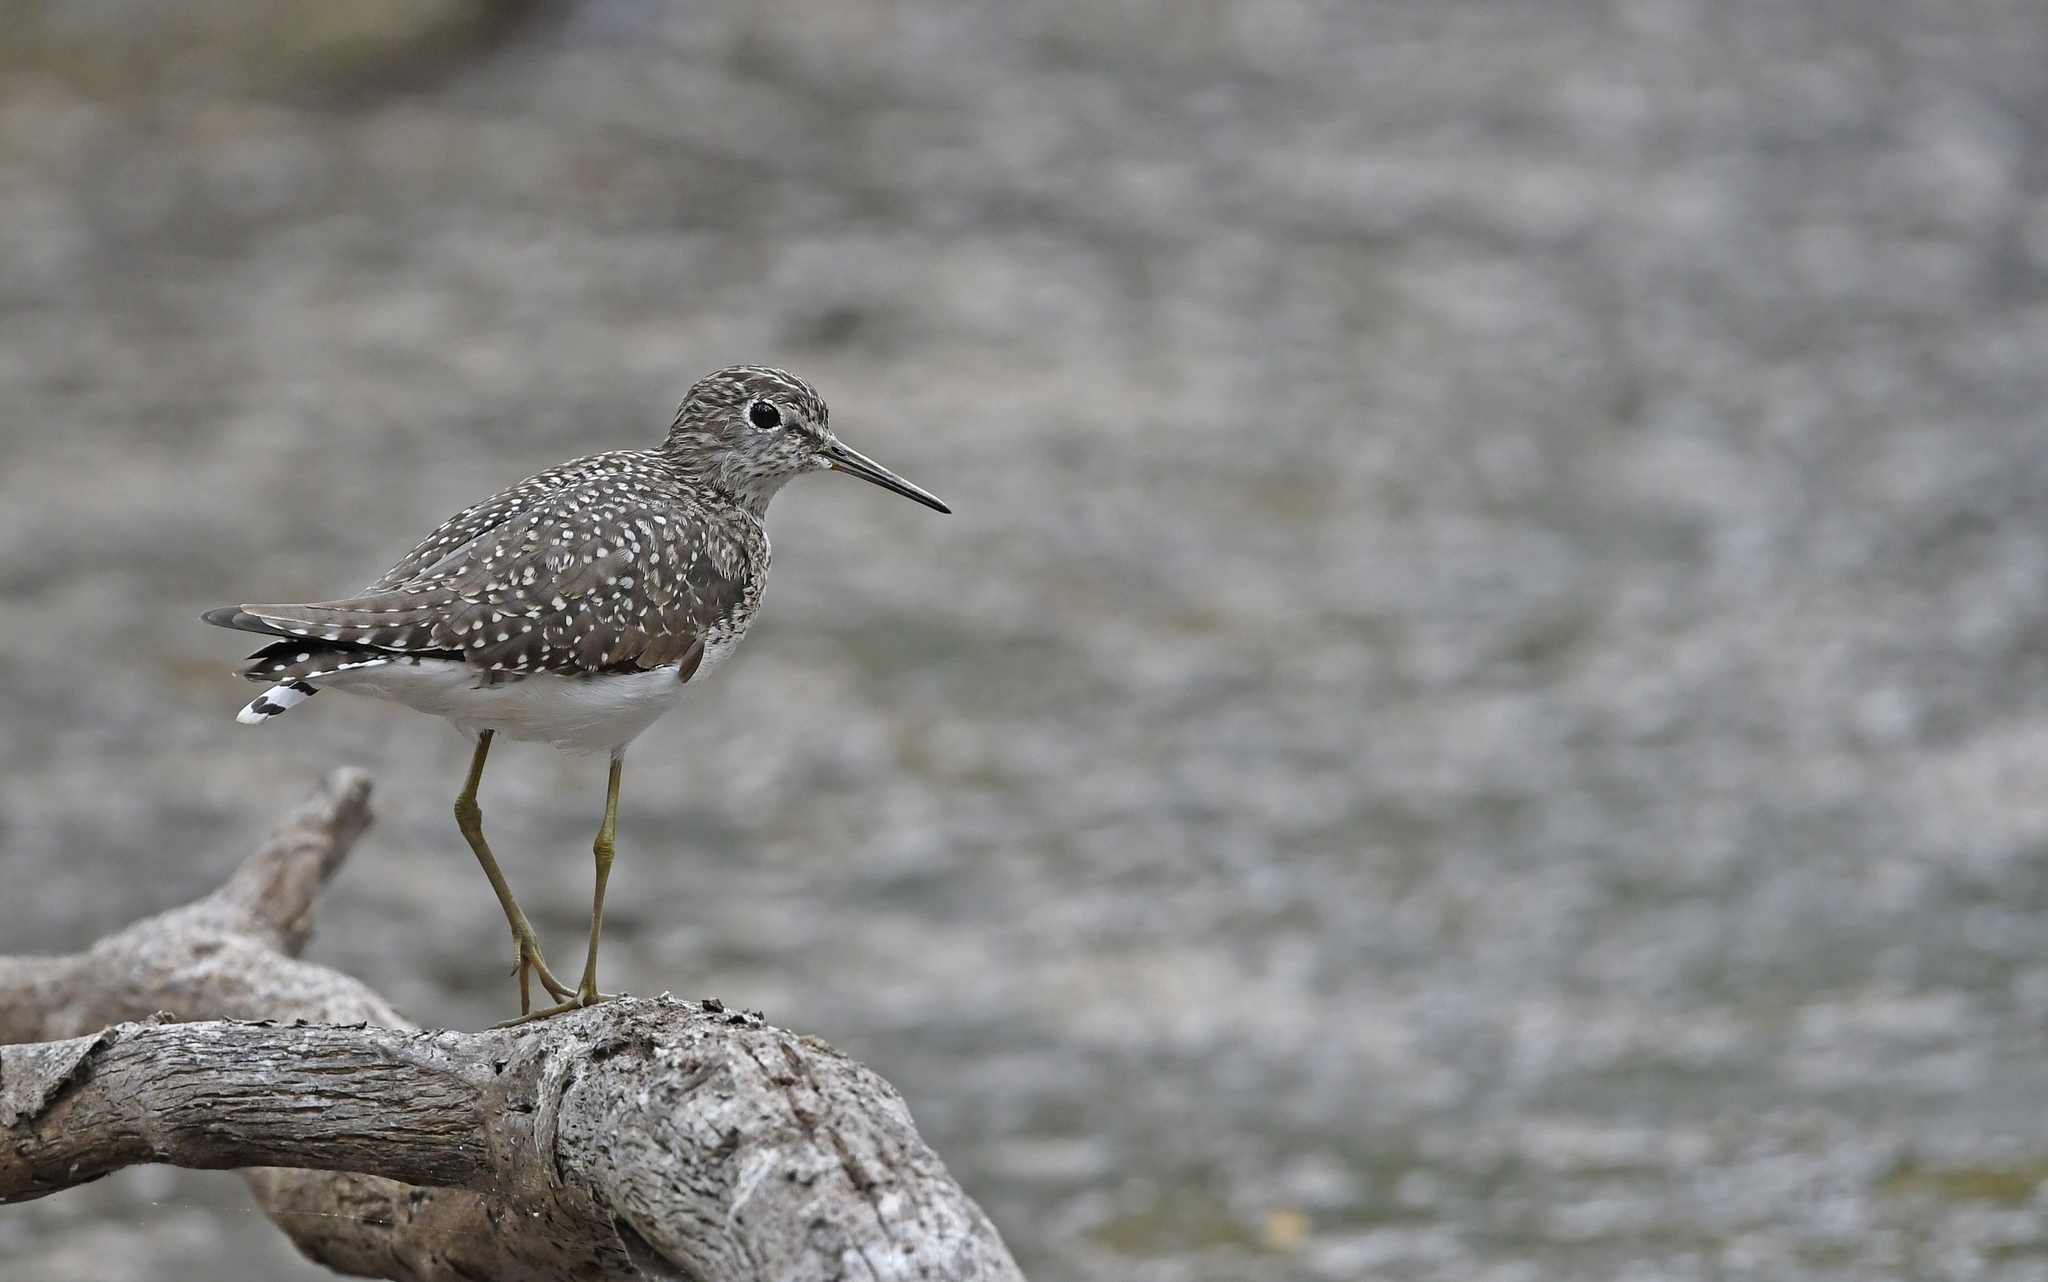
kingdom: Animalia
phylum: Chordata
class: Aves
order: Charadriiformes
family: Scolopacidae
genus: Tringa
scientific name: Tringa solitaria
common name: Solitary sandpiper
